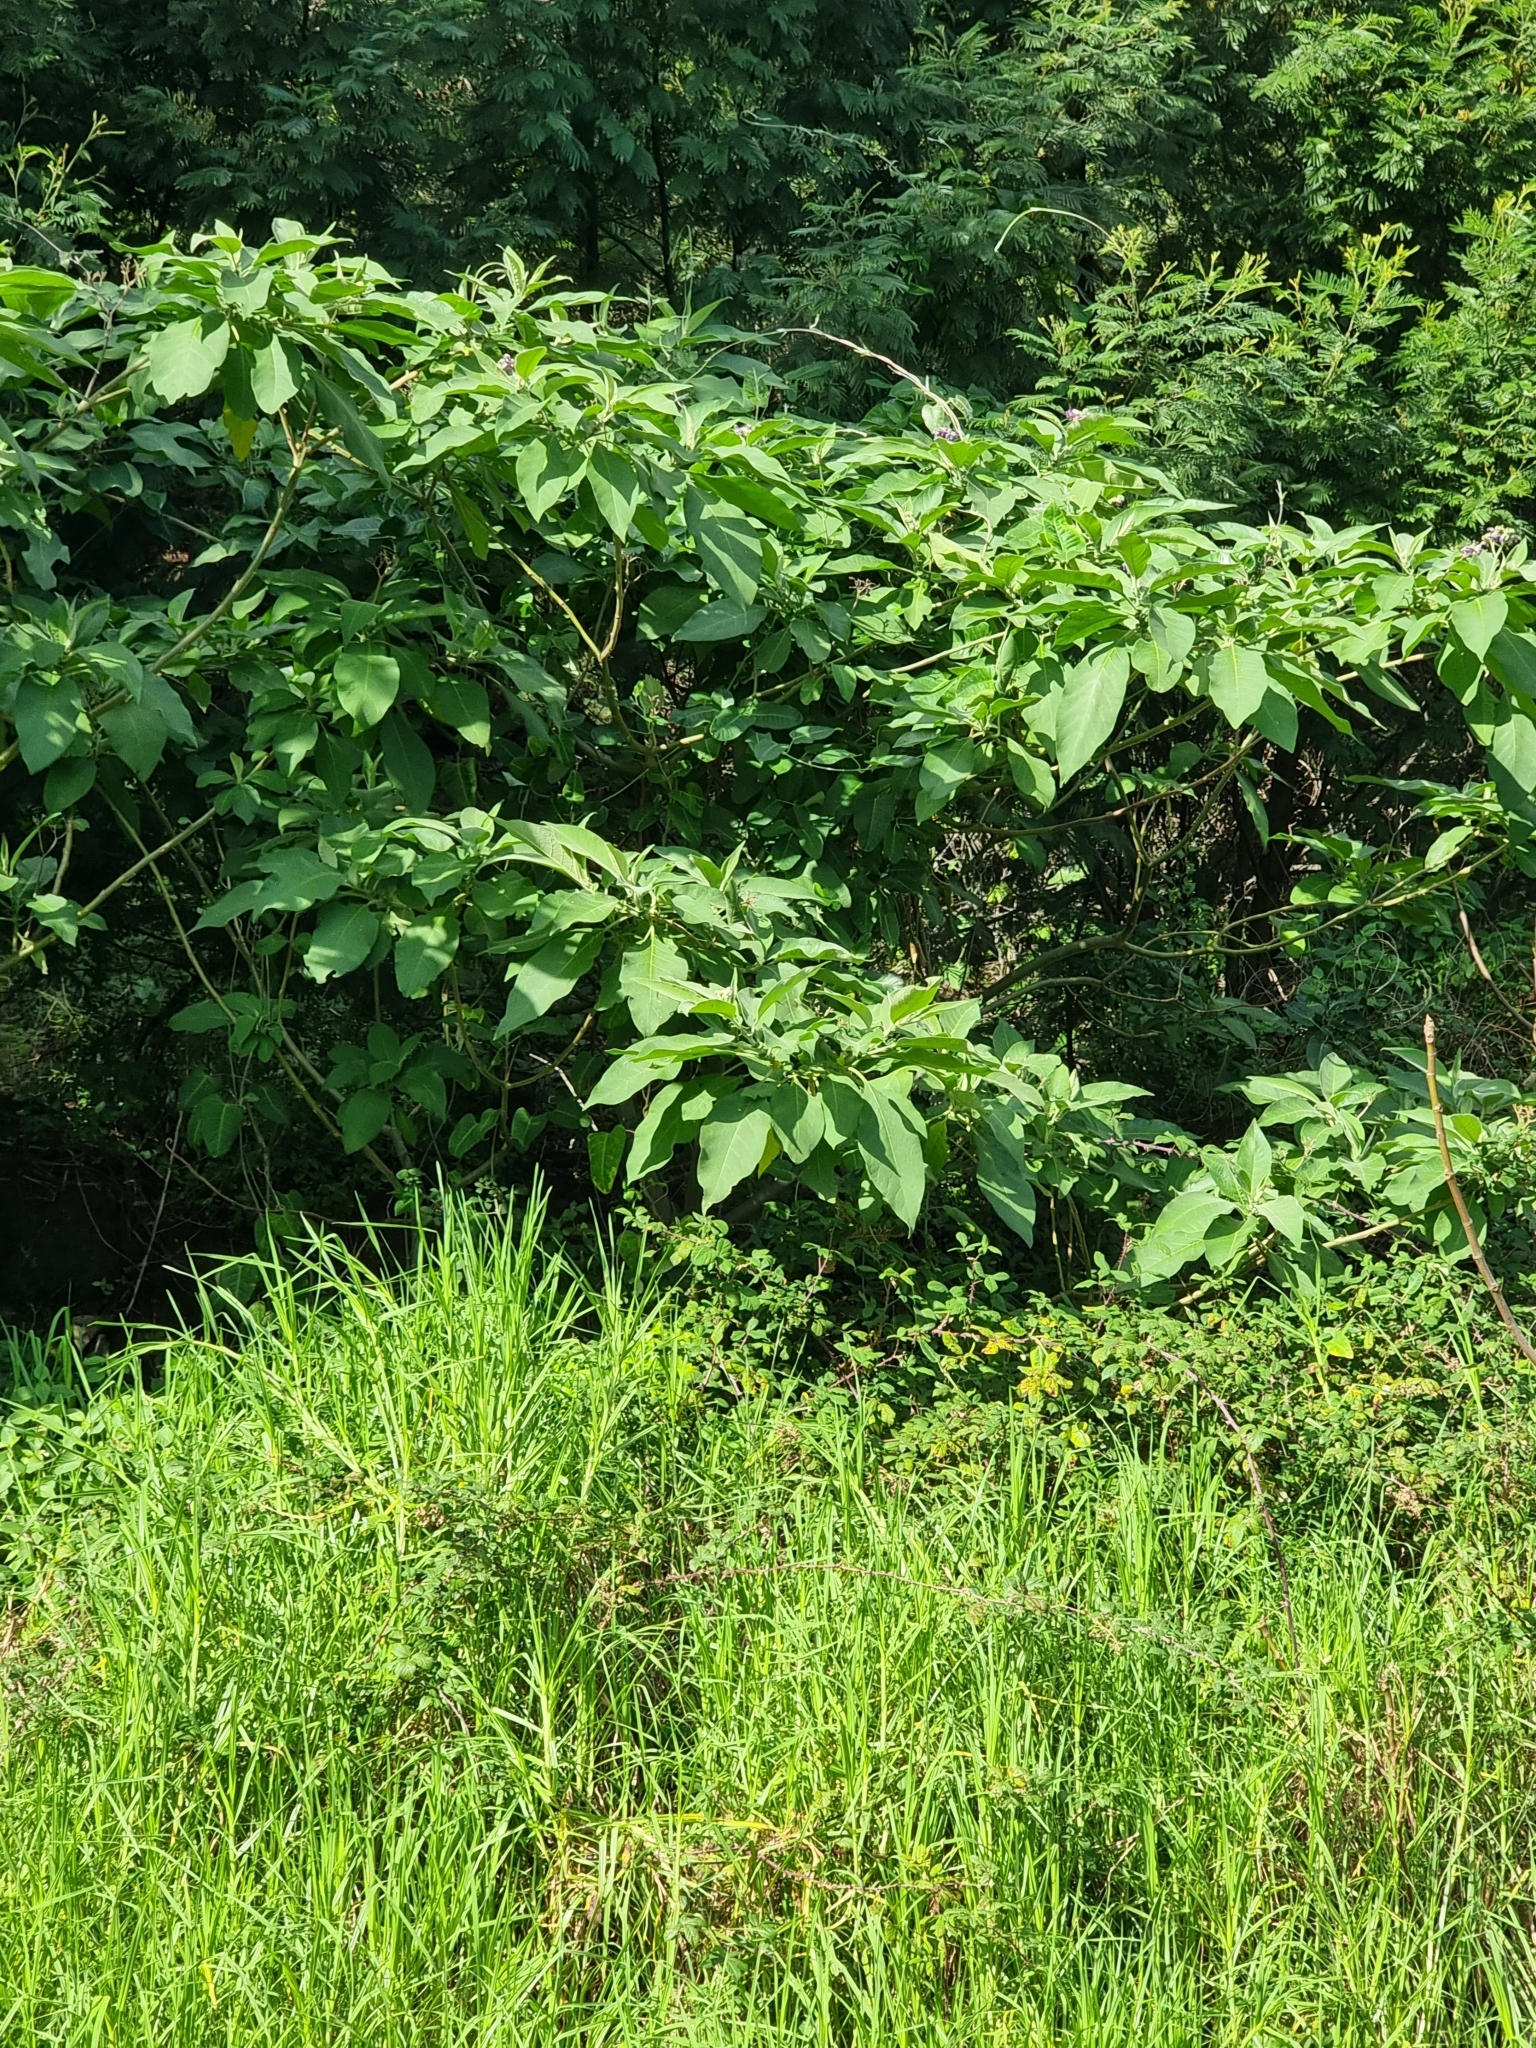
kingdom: Plantae
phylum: Tracheophyta
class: Magnoliopsida
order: Solanales
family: Solanaceae
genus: Solanum
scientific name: Solanum mauritianum
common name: Earleaf nightshade
